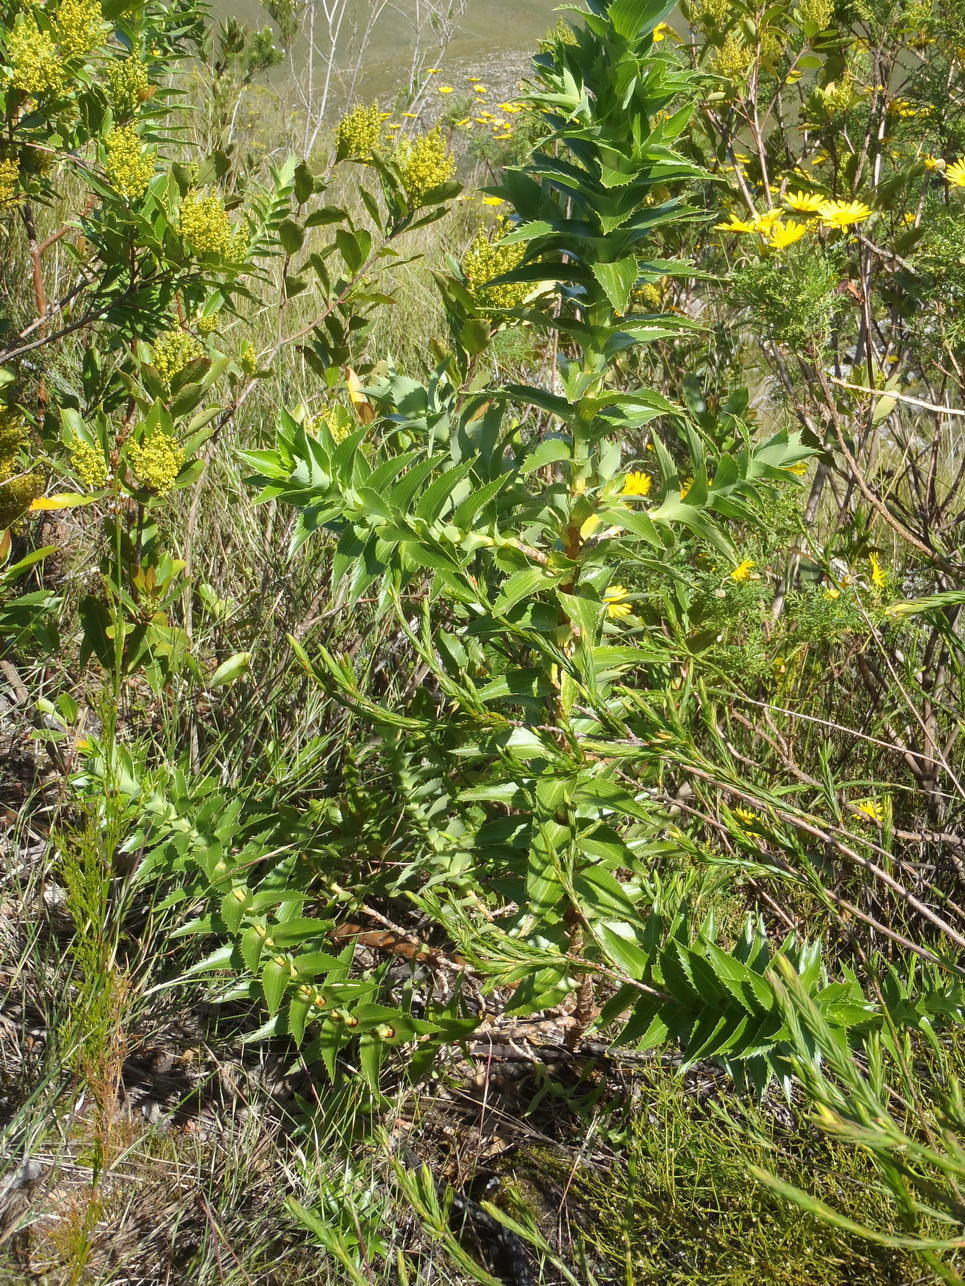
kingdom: Plantae
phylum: Tracheophyta
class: Magnoliopsida
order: Rosales
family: Rosaceae
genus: Cliffortia
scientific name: Cliffortia grandifolia
